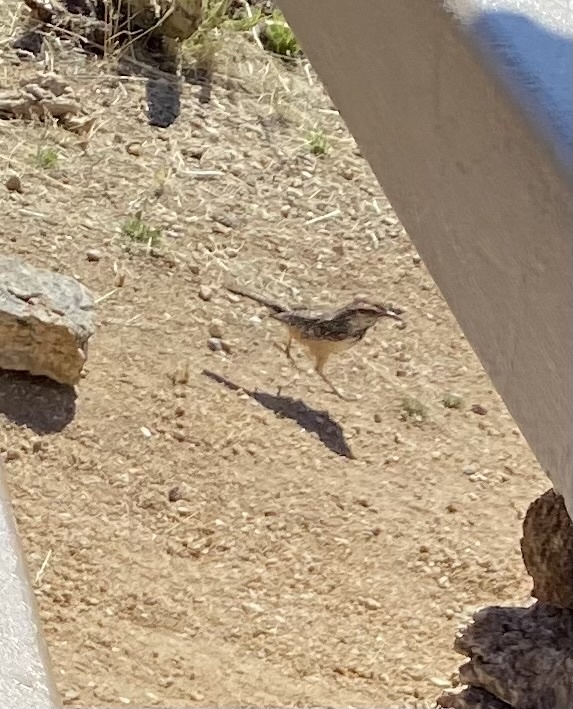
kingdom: Animalia
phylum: Chordata
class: Aves
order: Passeriformes
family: Troglodytidae
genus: Campylorhynchus
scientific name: Campylorhynchus brunneicapillus
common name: Cactus wren
